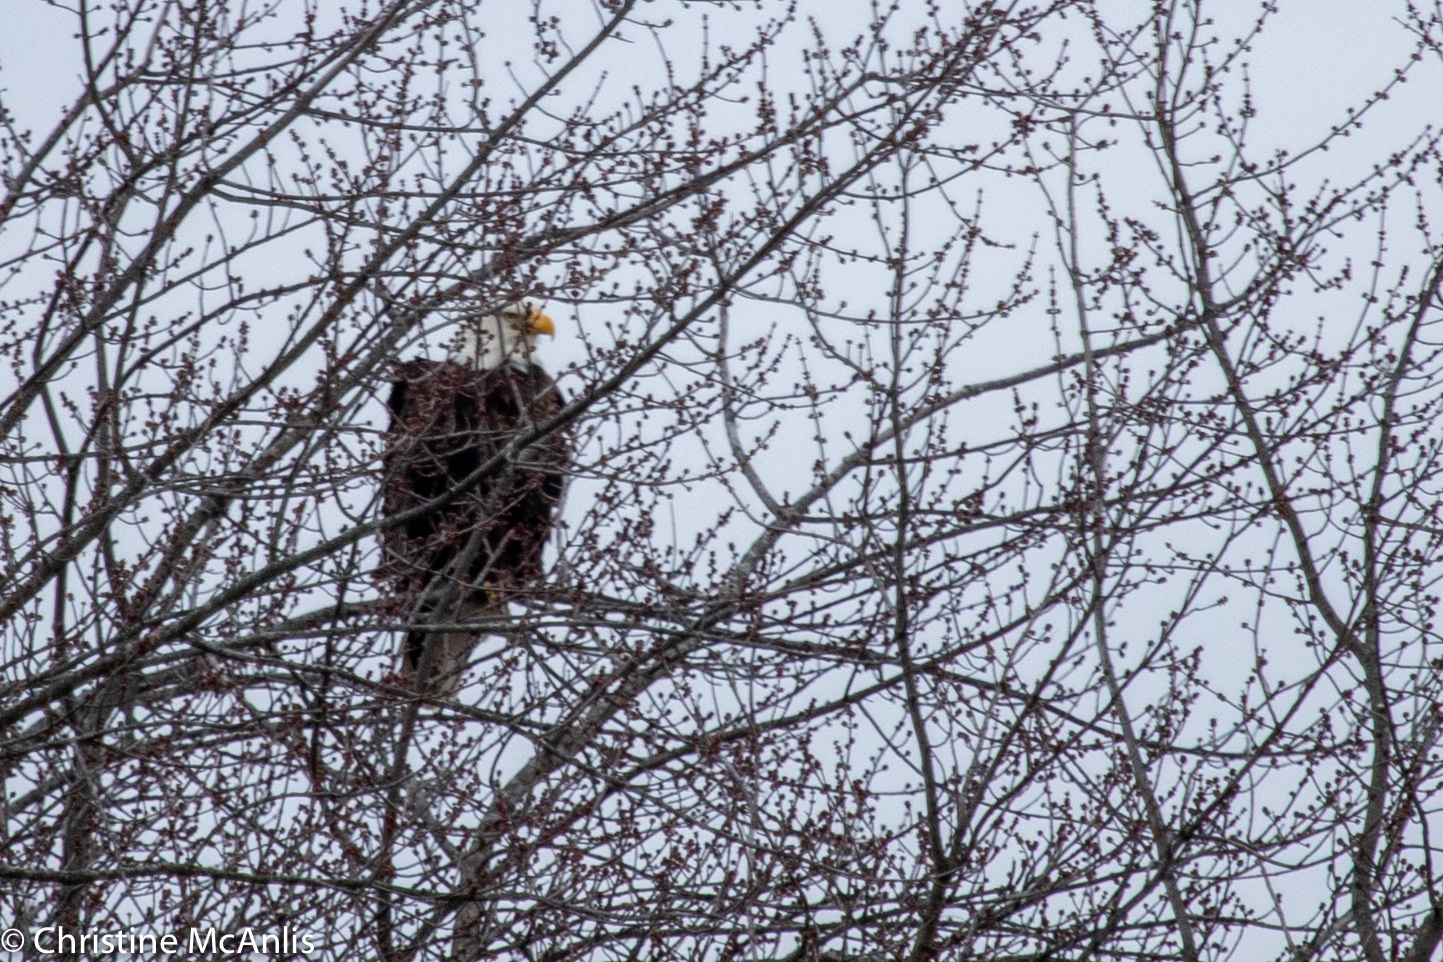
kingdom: Animalia
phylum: Chordata
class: Aves
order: Accipitriformes
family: Accipitridae
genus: Haliaeetus
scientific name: Haliaeetus leucocephalus
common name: Bald eagle
